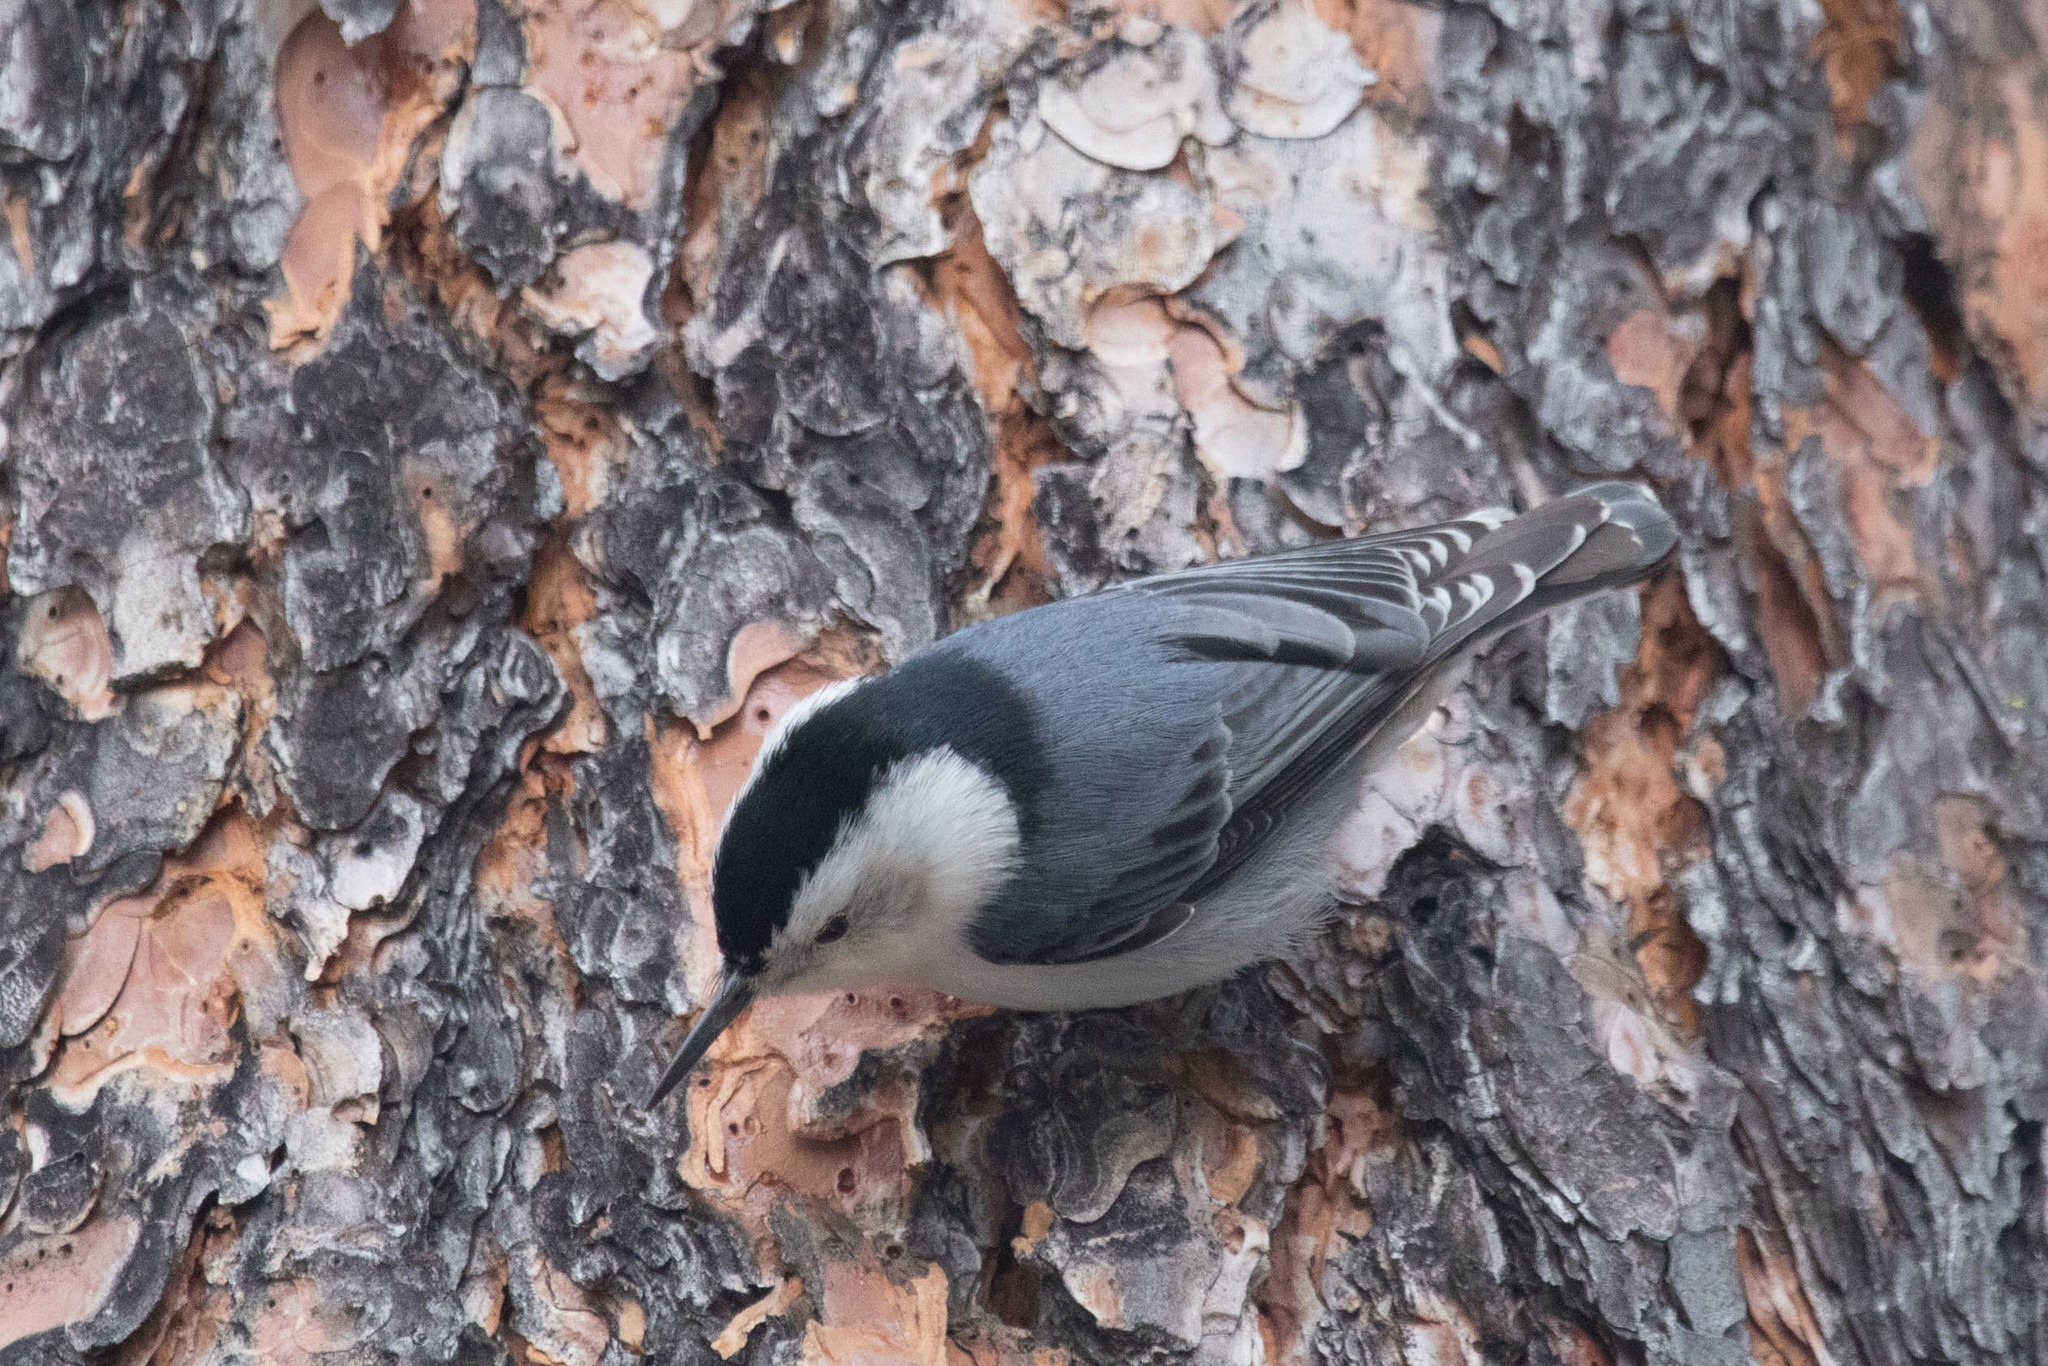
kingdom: Animalia
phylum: Chordata
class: Aves
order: Passeriformes
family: Sittidae
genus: Sitta
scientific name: Sitta carolinensis
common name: White-breasted nuthatch
